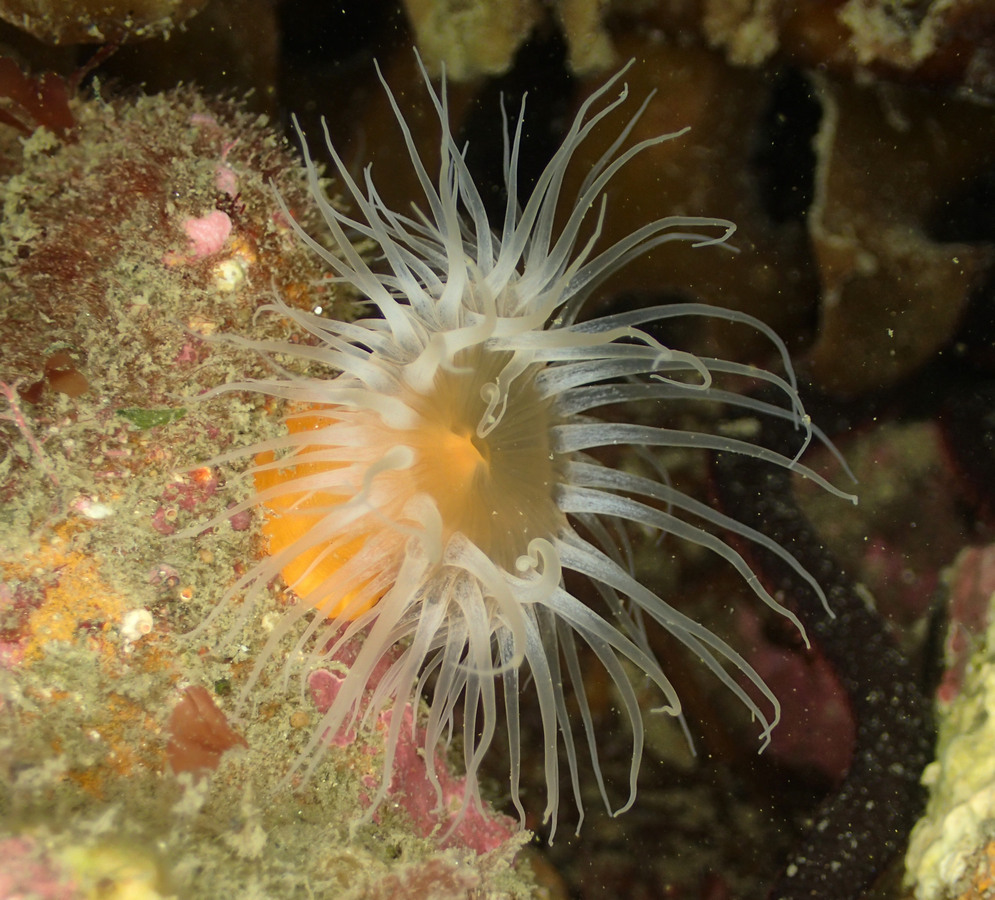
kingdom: Animalia
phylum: Cnidaria
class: Anthozoa
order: Actiniaria
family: Sagartiidae
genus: Habrosanthus
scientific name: Habrosanthus bathamae
